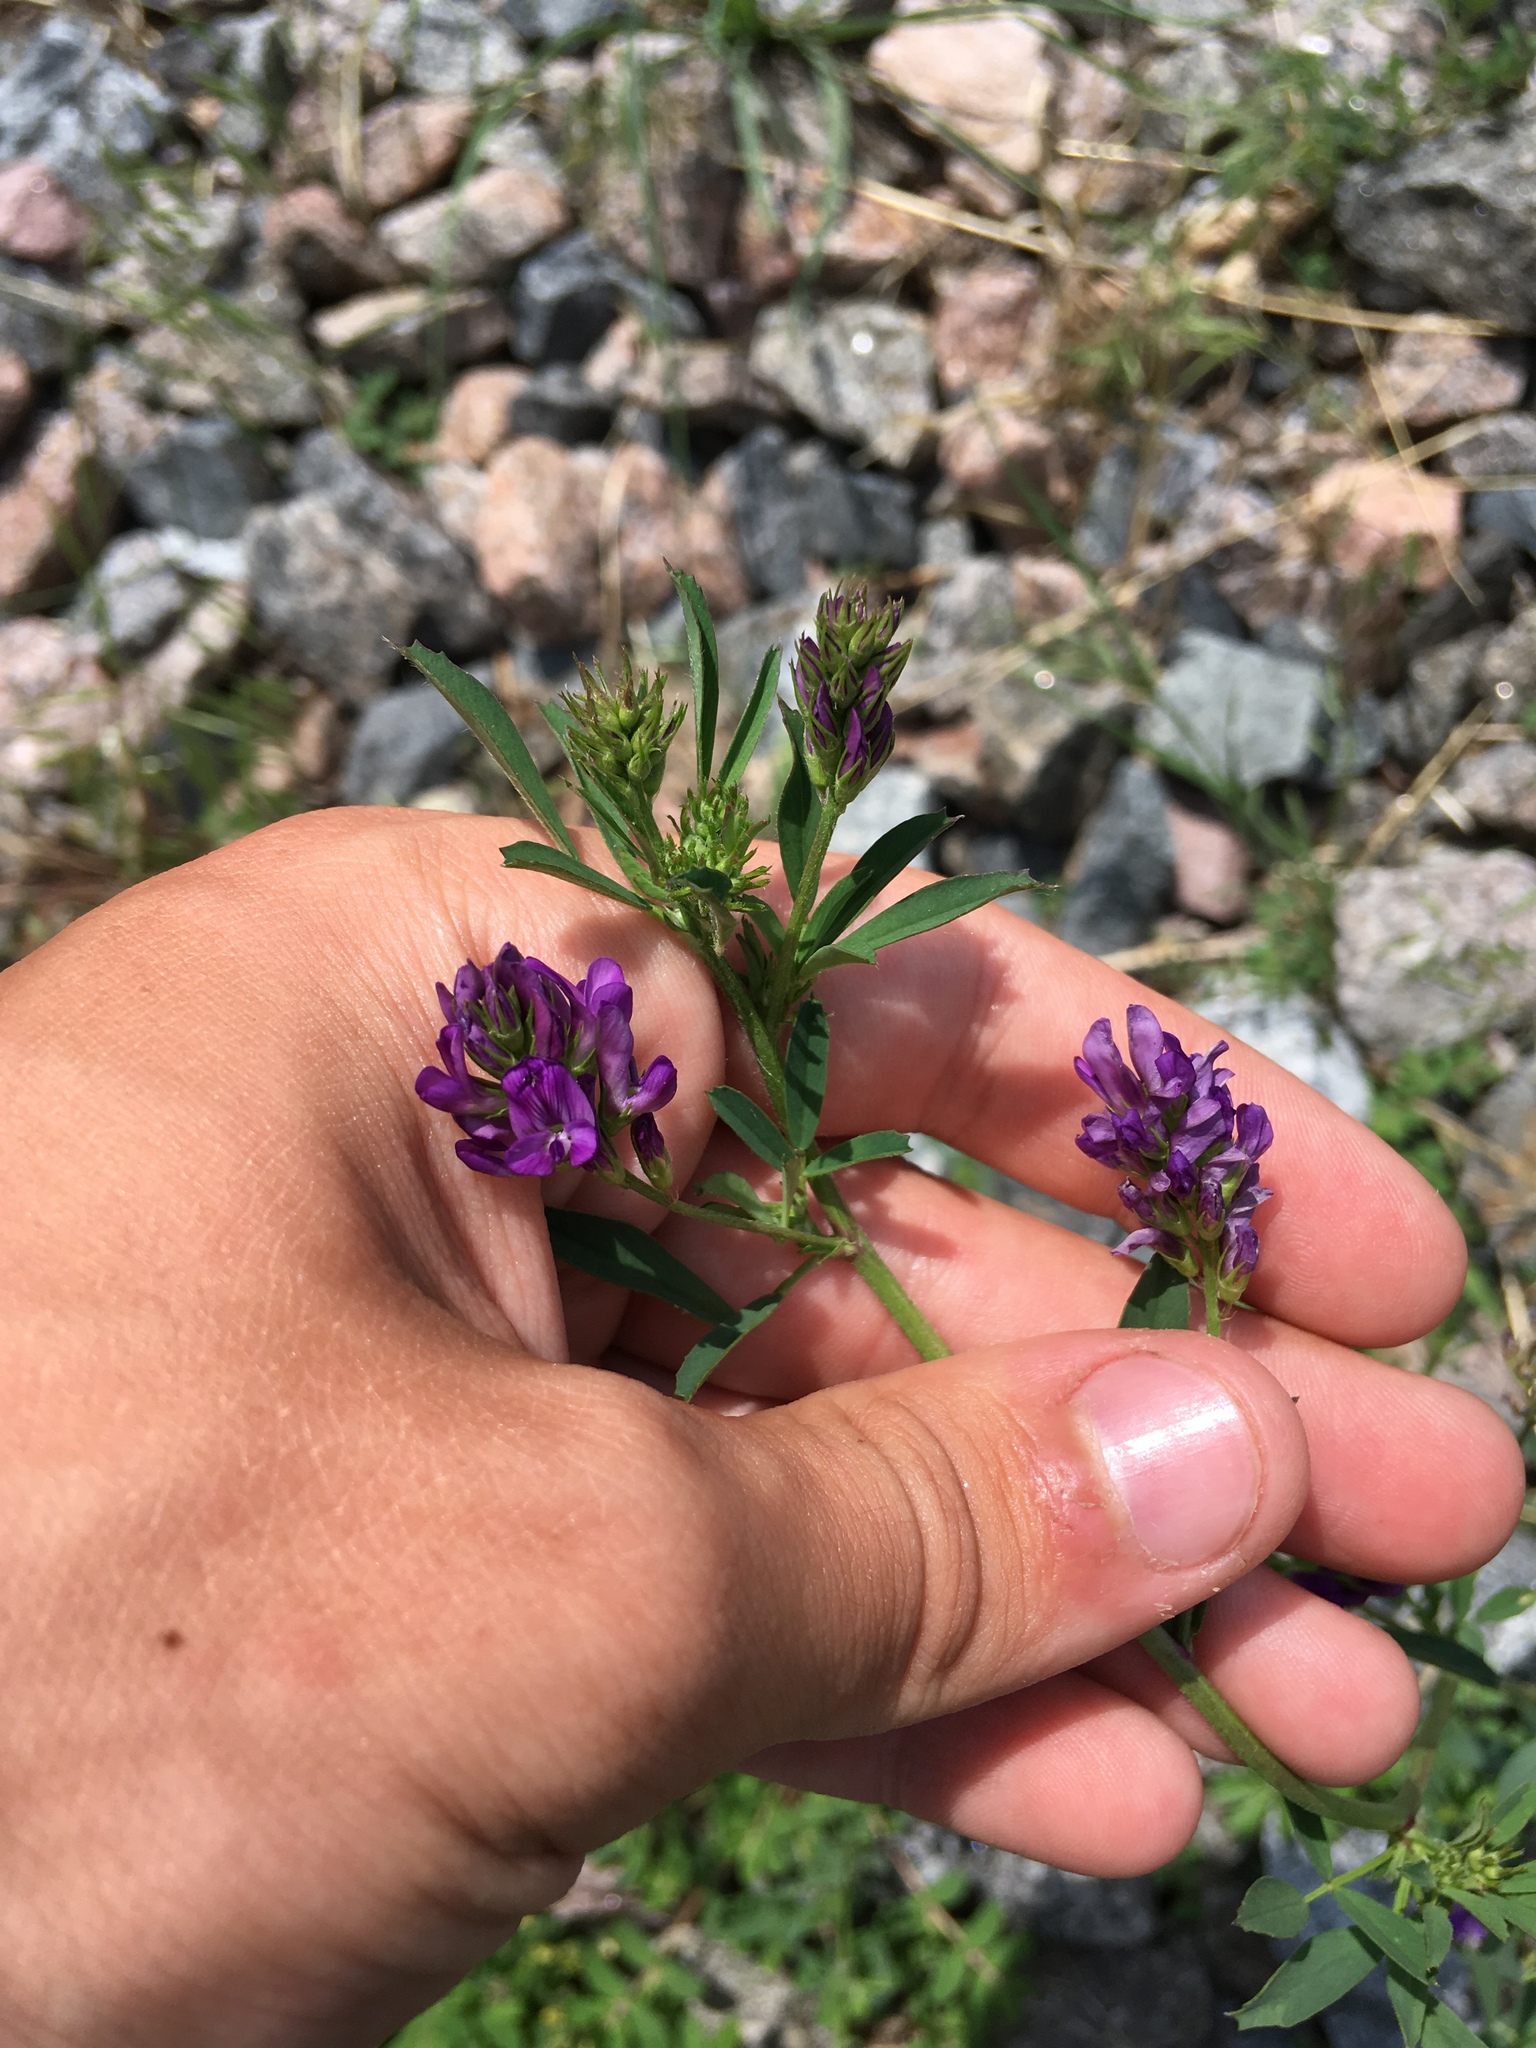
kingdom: Plantae
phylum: Tracheophyta
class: Magnoliopsida
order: Fabales
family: Fabaceae
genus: Medicago
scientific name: Medicago sativa
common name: Alfalfa
